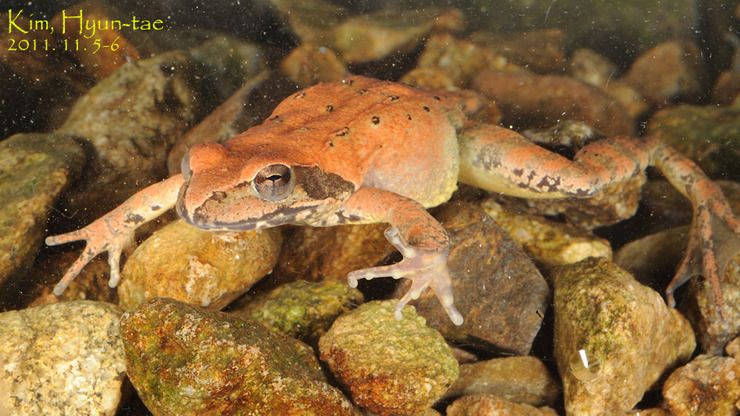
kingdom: Animalia
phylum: Chordata
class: Amphibia
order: Anura
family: Ranidae
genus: Rana
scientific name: Rana uenoi
